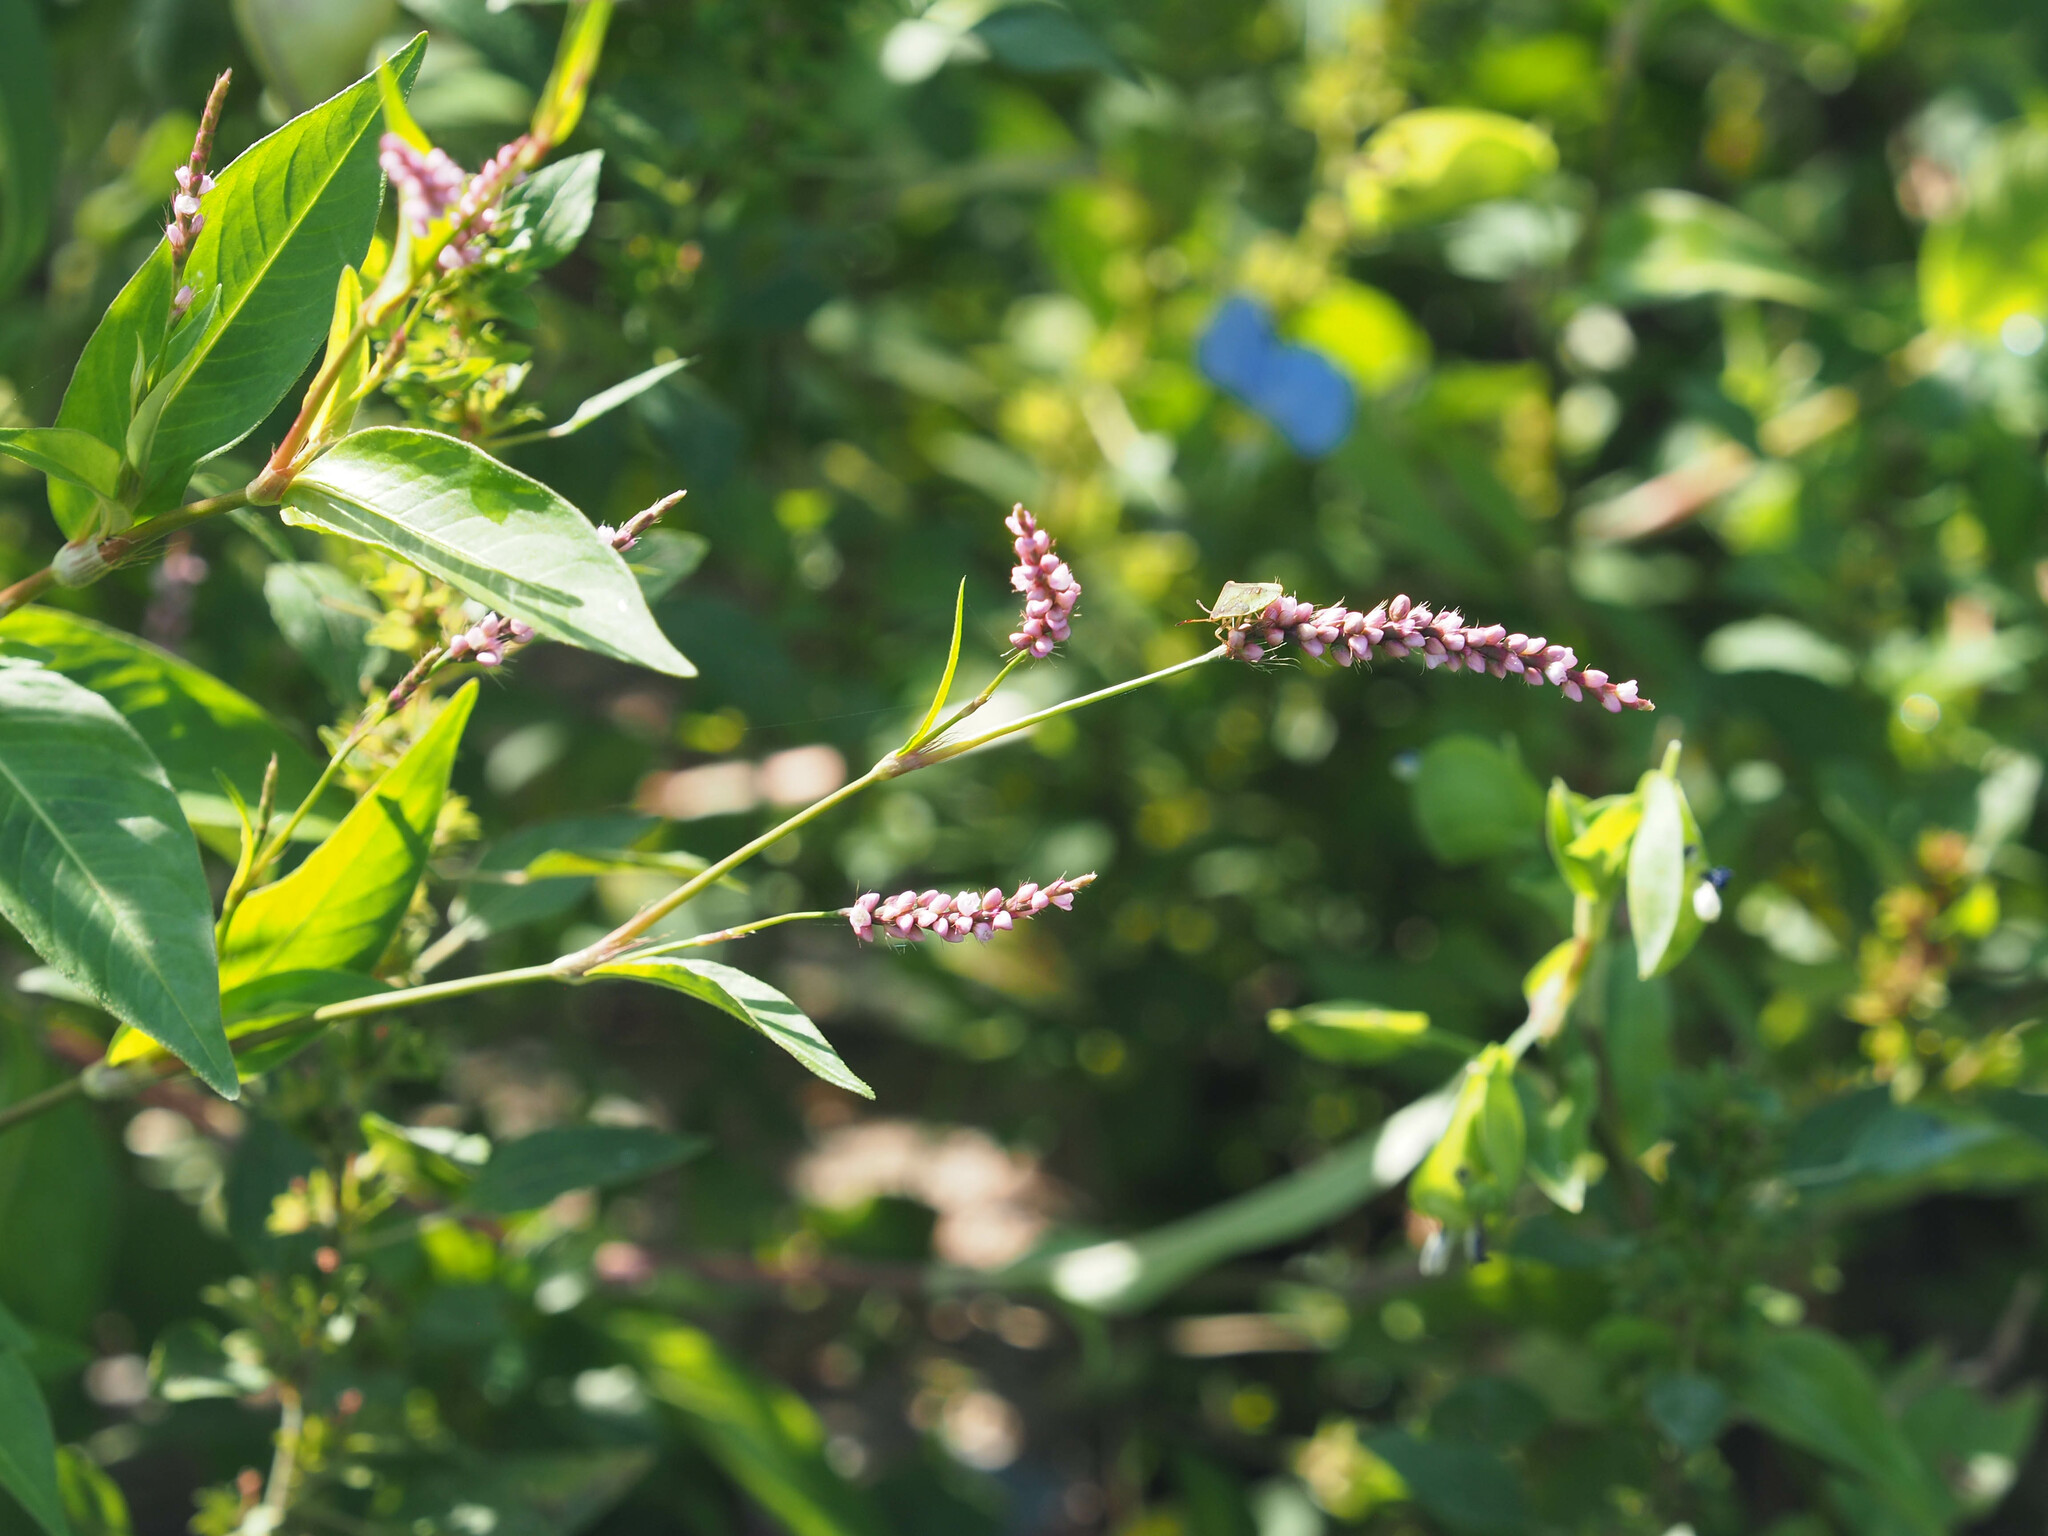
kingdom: Plantae
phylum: Tracheophyta
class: Magnoliopsida
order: Caryophyllales
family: Polygonaceae
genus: Persicaria
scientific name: Persicaria longiseta
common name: Bristly lady's-thumb
